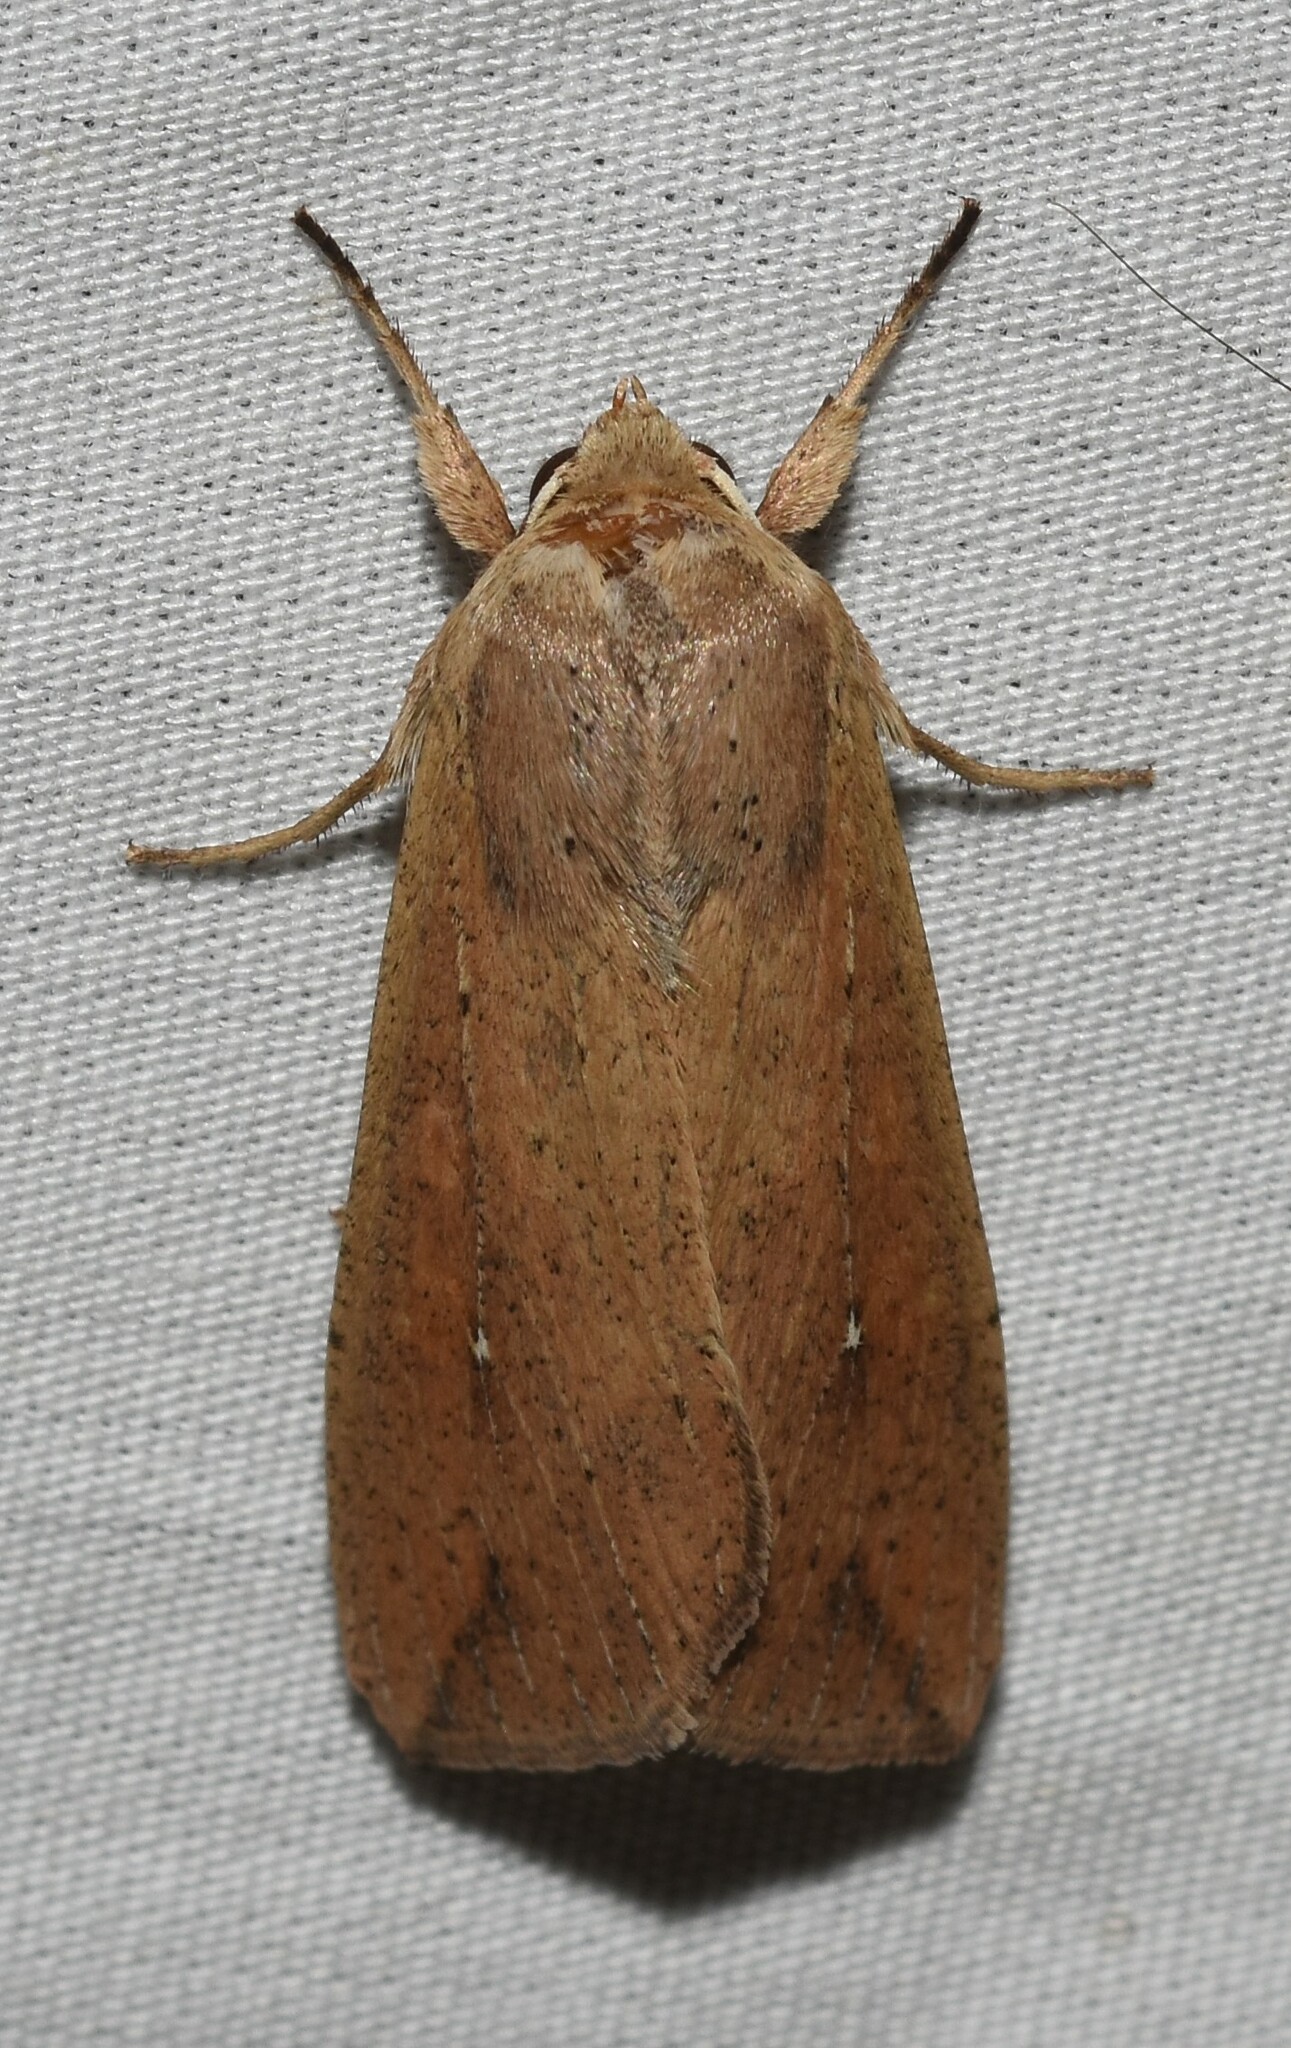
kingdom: Animalia
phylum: Arthropoda
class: Insecta
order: Lepidoptera
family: Noctuidae
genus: Mythimna
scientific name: Mythimna unipuncta
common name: White-speck
